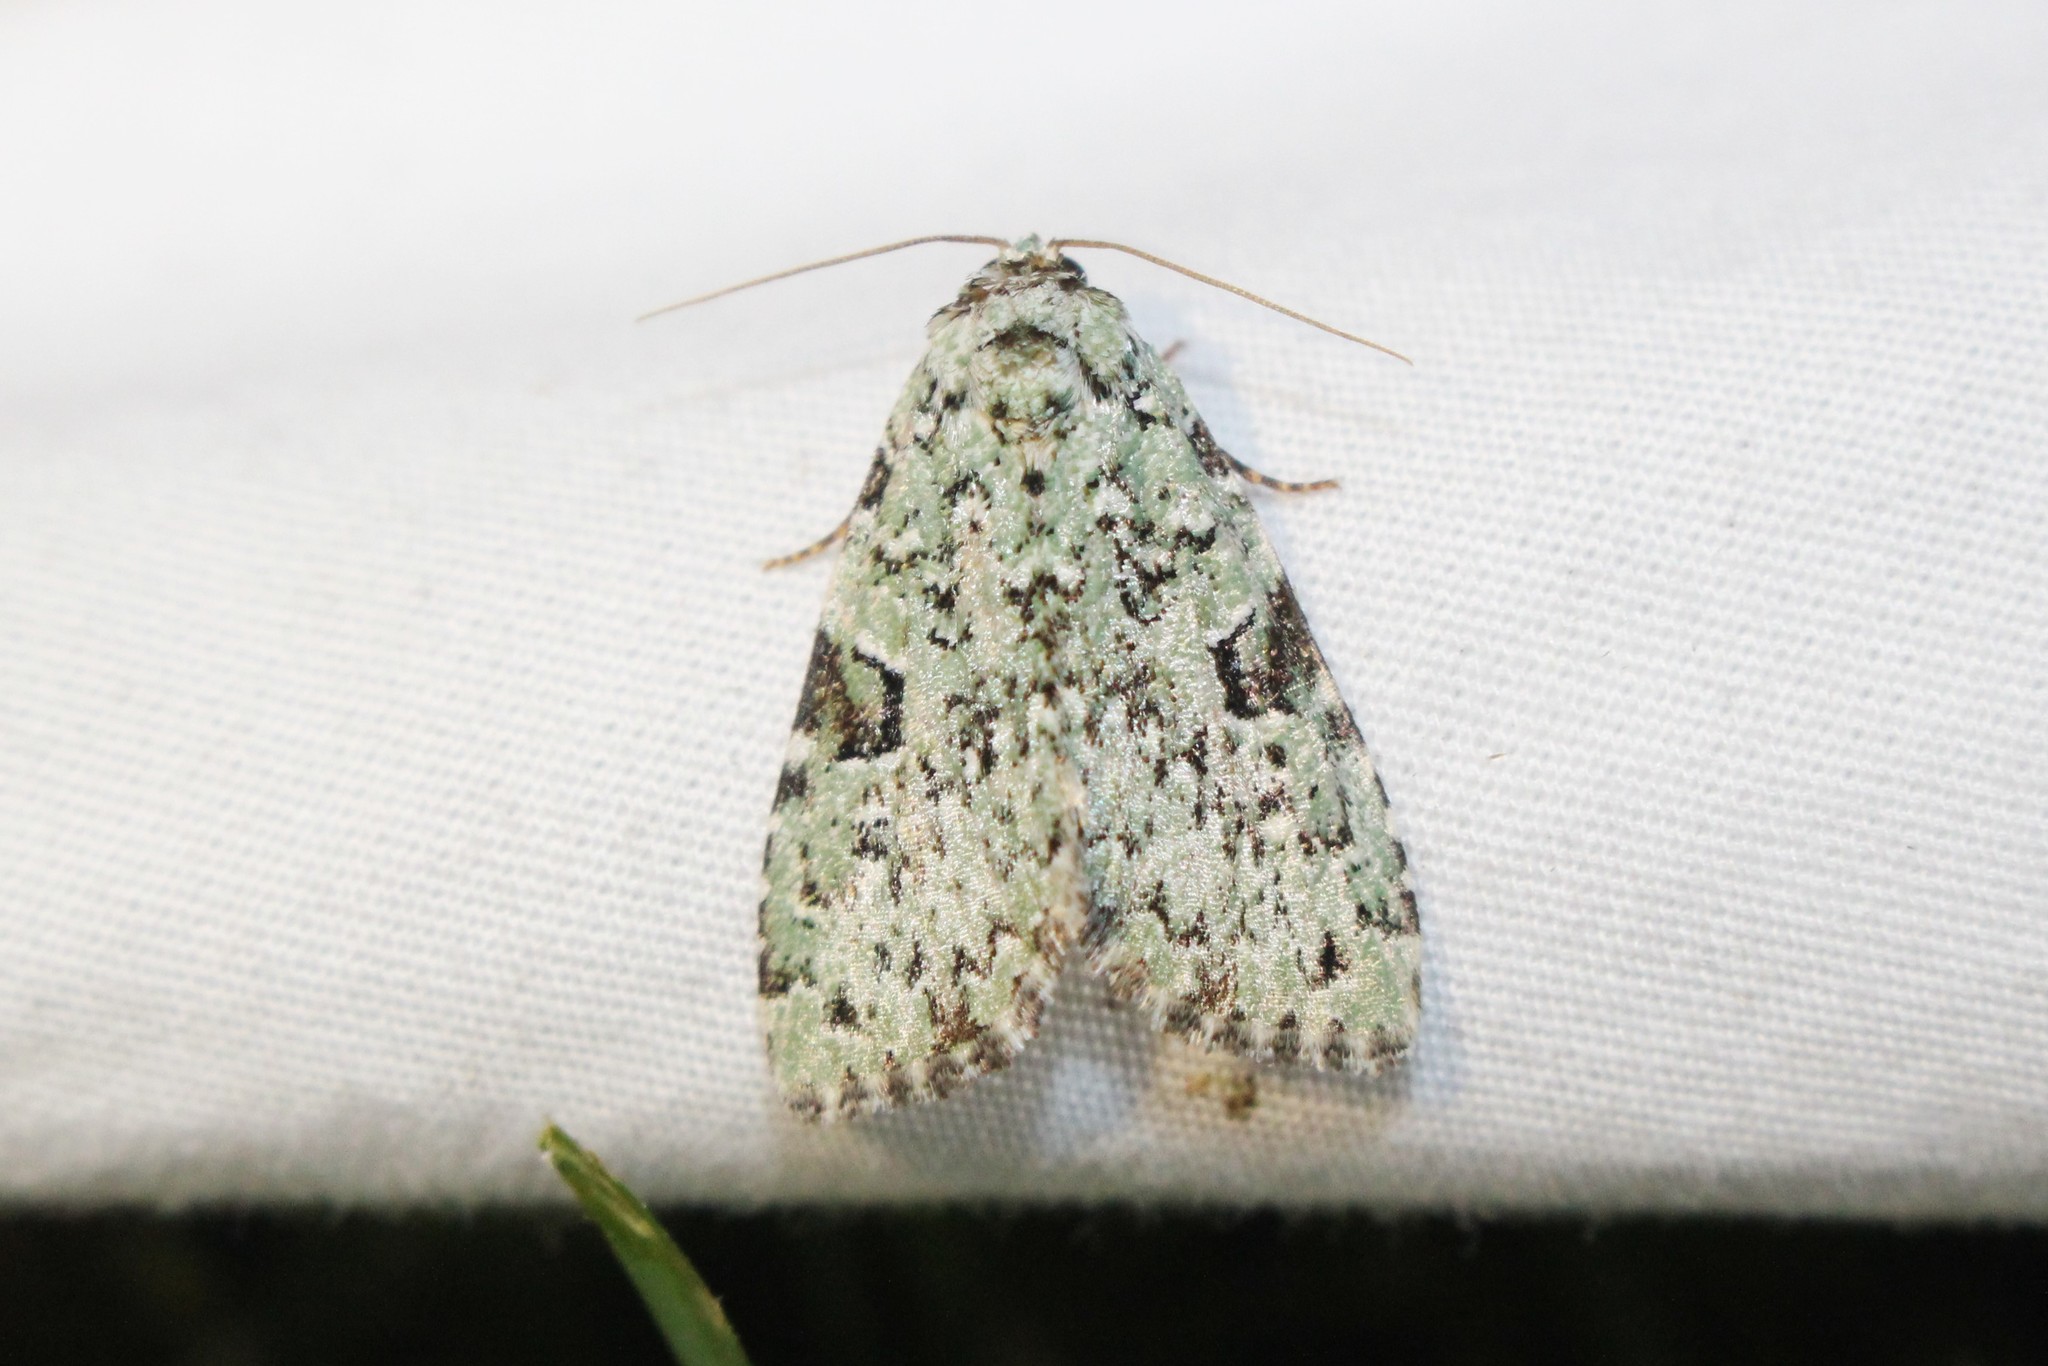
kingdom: Animalia
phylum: Arthropoda
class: Insecta
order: Lepidoptera
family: Noctuidae
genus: Leuconycta
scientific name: Leuconycta diphteroides
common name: Green leuconycta moth
